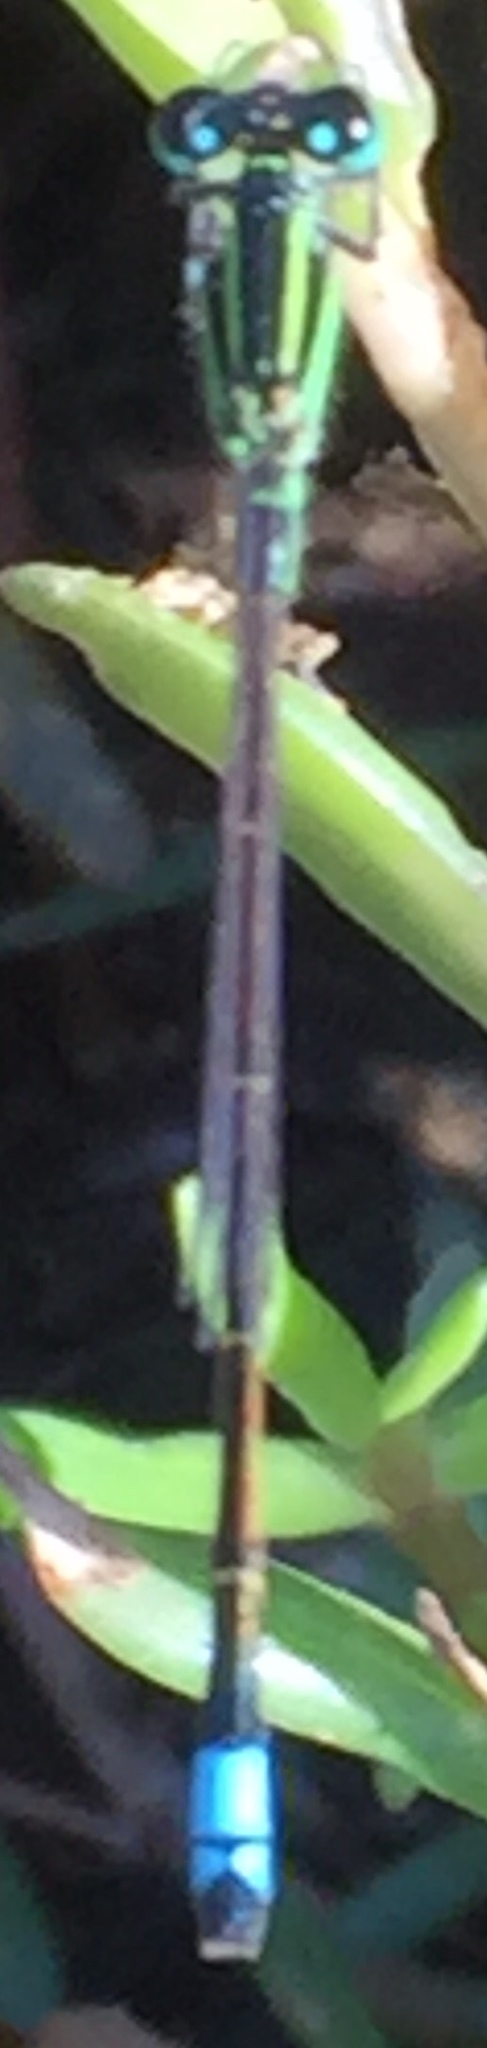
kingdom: Animalia
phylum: Arthropoda
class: Insecta
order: Odonata
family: Coenagrionidae
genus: Ischnura
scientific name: Ischnura ramburii
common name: Rambur's forktail
